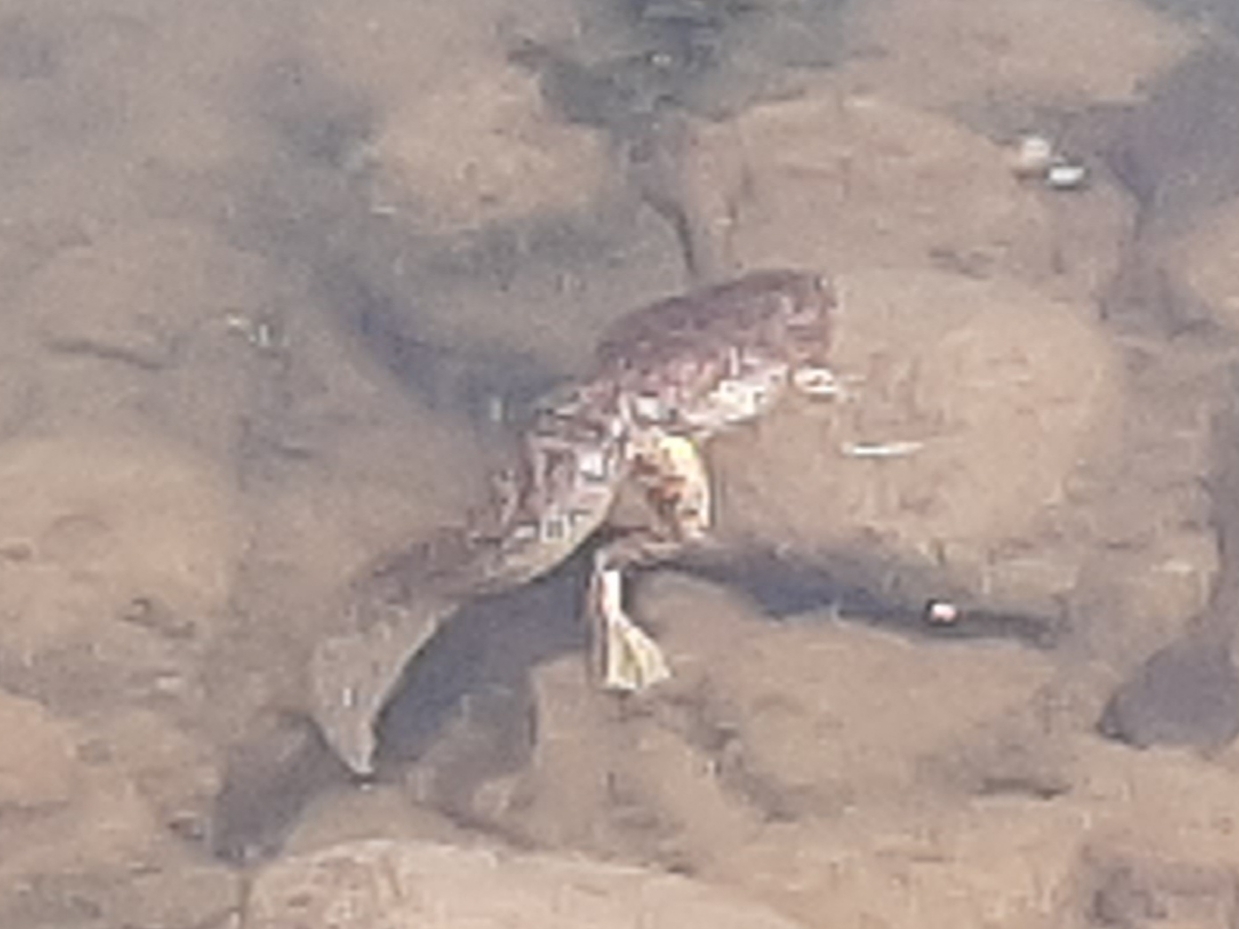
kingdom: Animalia
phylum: Chordata
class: Amphibia
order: Anura
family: Ranidae
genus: Lithobates
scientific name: Lithobates catesbeianus
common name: American bullfrog
